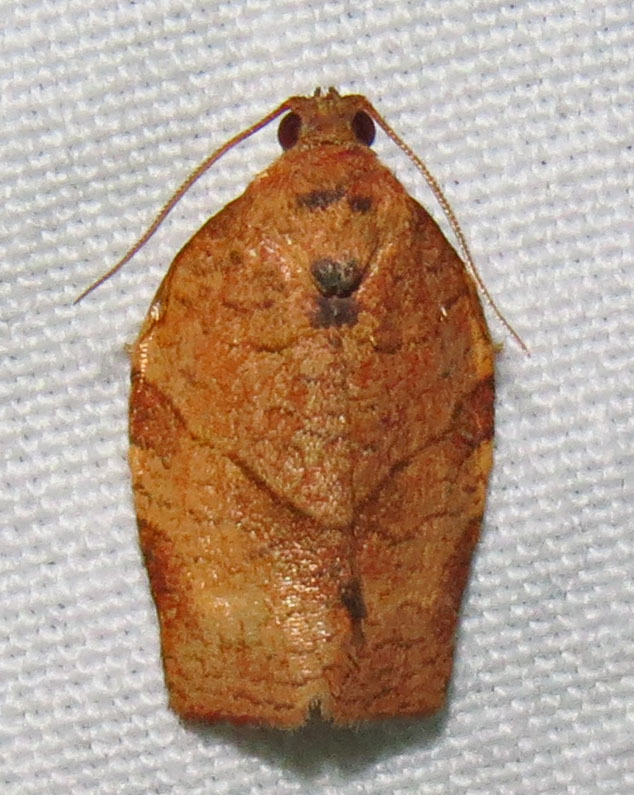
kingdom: Animalia
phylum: Arthropoda
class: Insecta
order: Lepidoptera
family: Tortricidae
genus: Choristoneura
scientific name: Choristoneura rosaceana
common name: Oblique-banded leafroller moth
